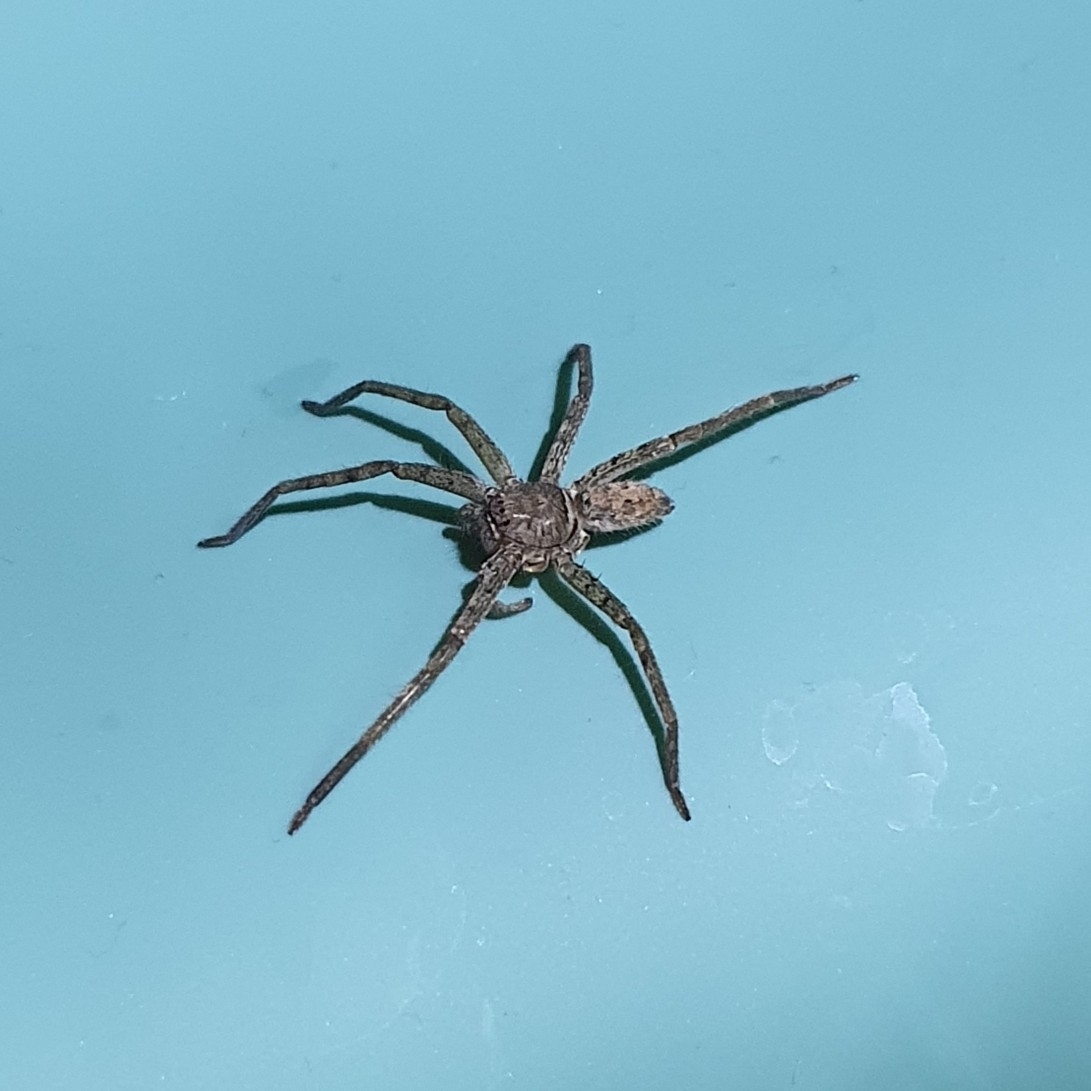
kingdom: Animalia
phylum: Arthropoda
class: Arachnida
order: Araneae
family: Sparassidae
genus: Heteropoda
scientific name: Heteropoda venatoria
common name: Huntsman spider
